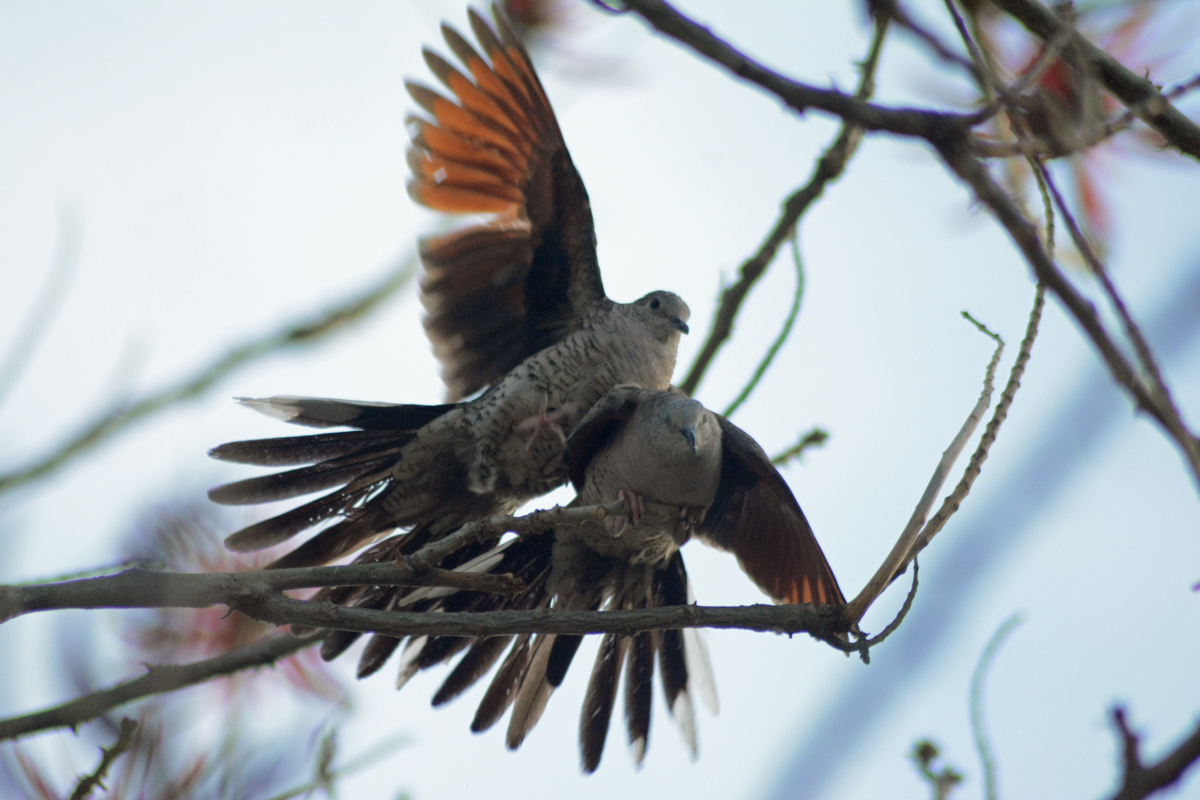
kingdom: Animalia
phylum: Chordata
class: Aves
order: Columbiformes
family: Columbidae
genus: Columbina
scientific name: Columbina inca
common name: Inca dove
